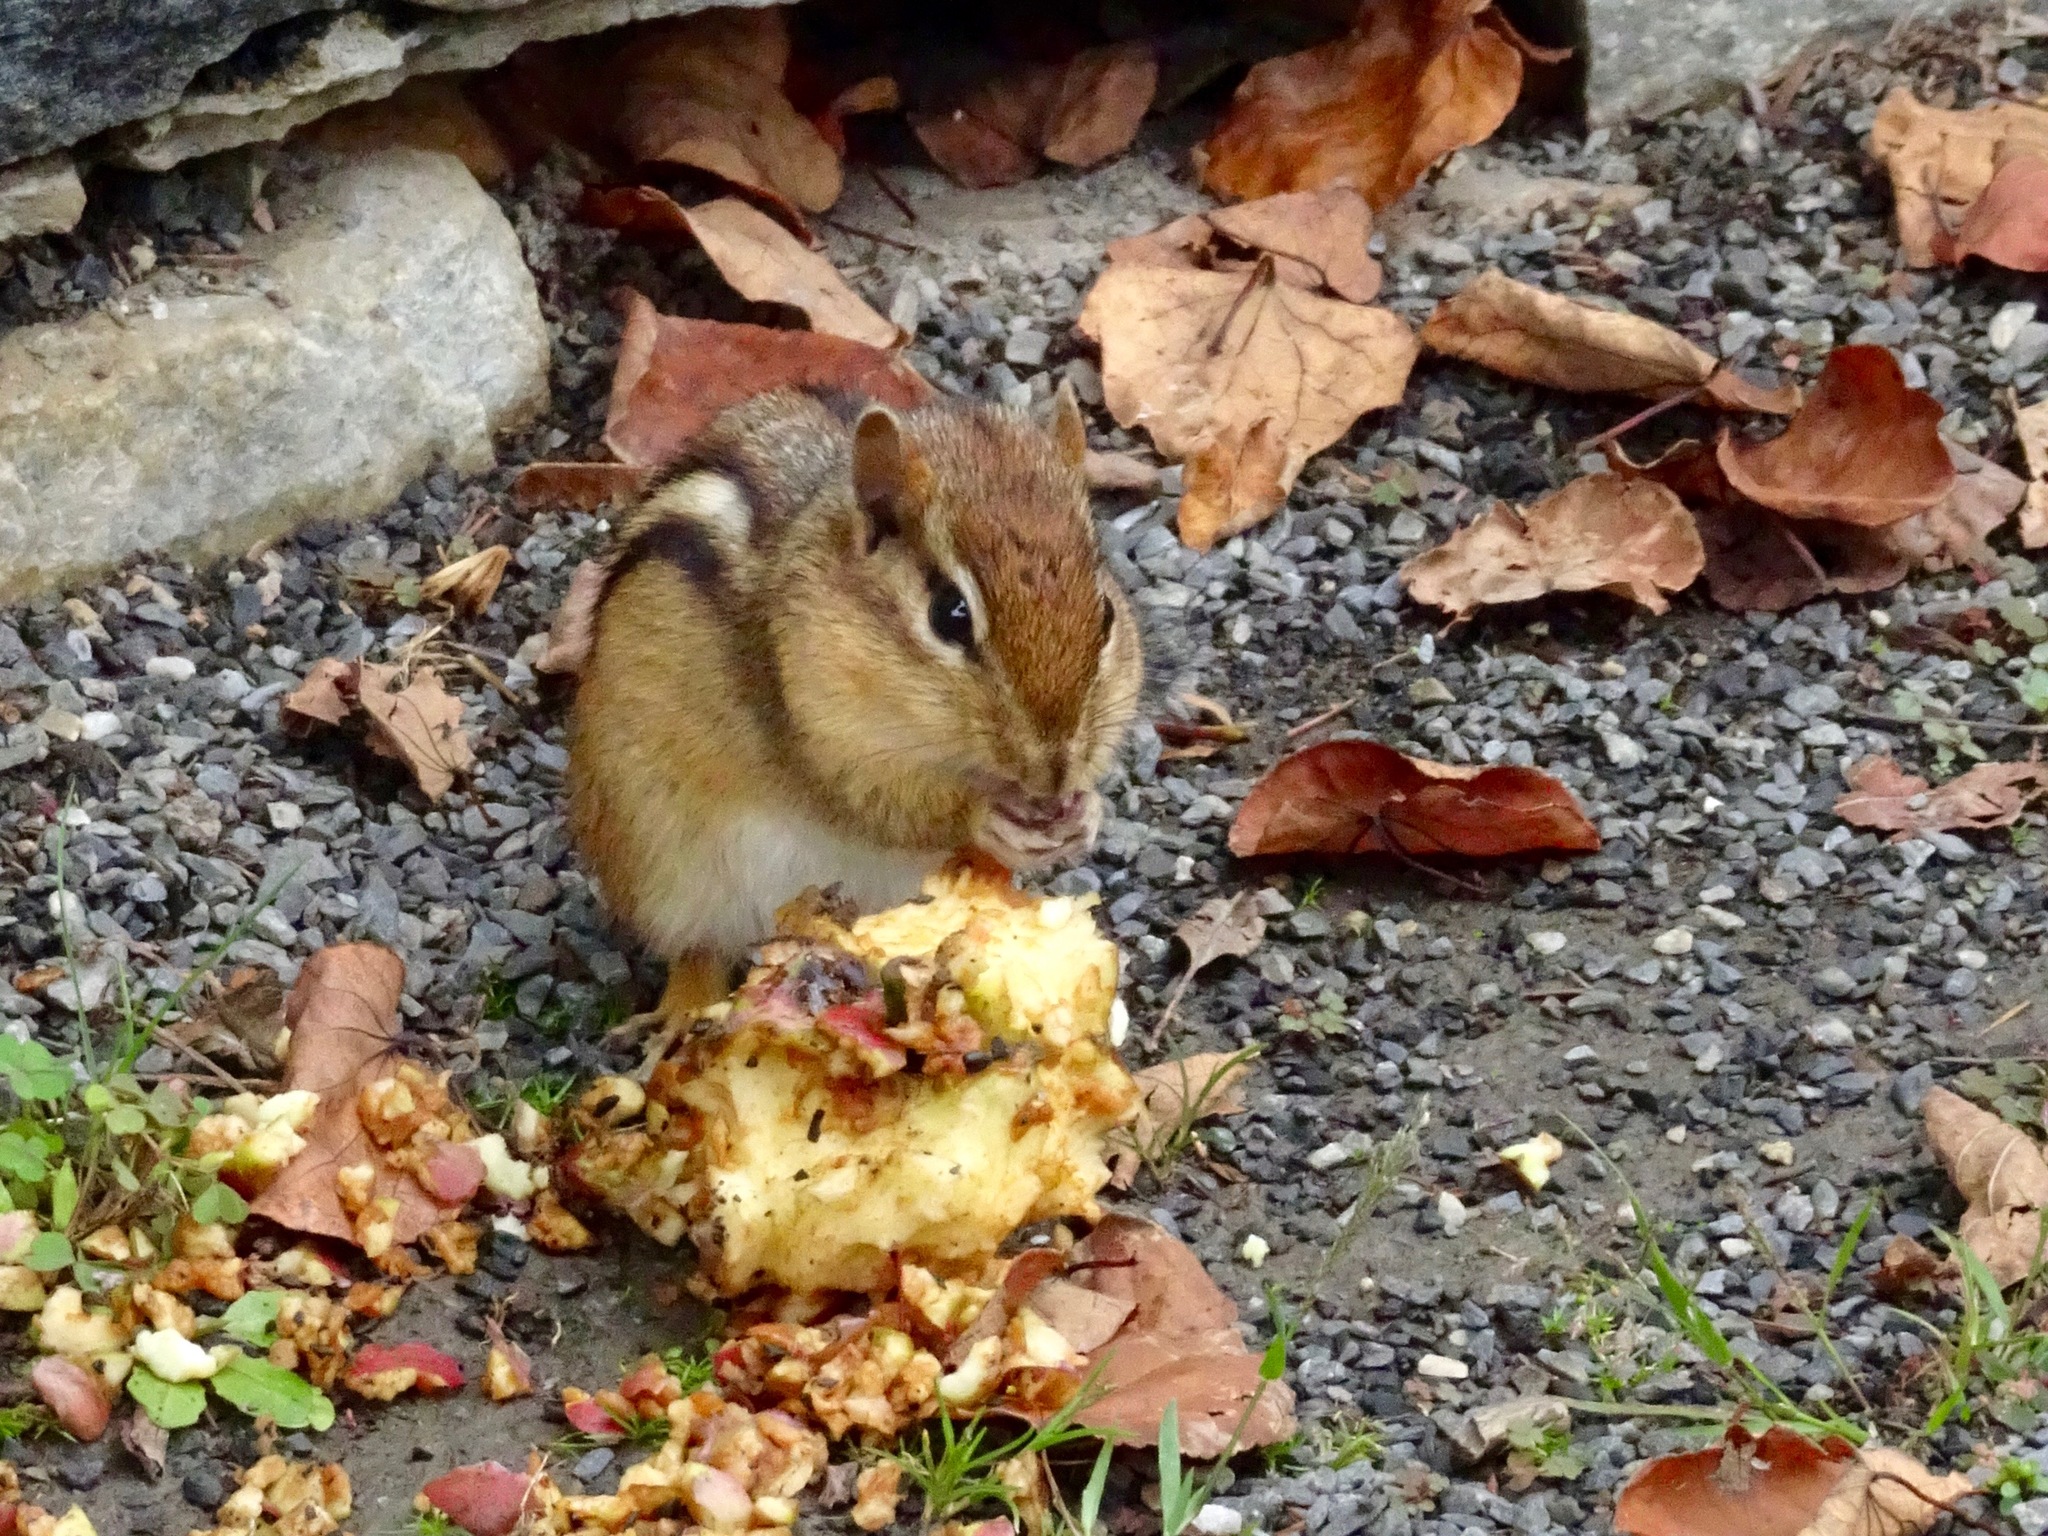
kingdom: Animalia
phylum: Chordata
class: Mammalia
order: Rodentia
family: Sciuridae
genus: Tamias
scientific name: Tamias striatus
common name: Eastern chipmunk
